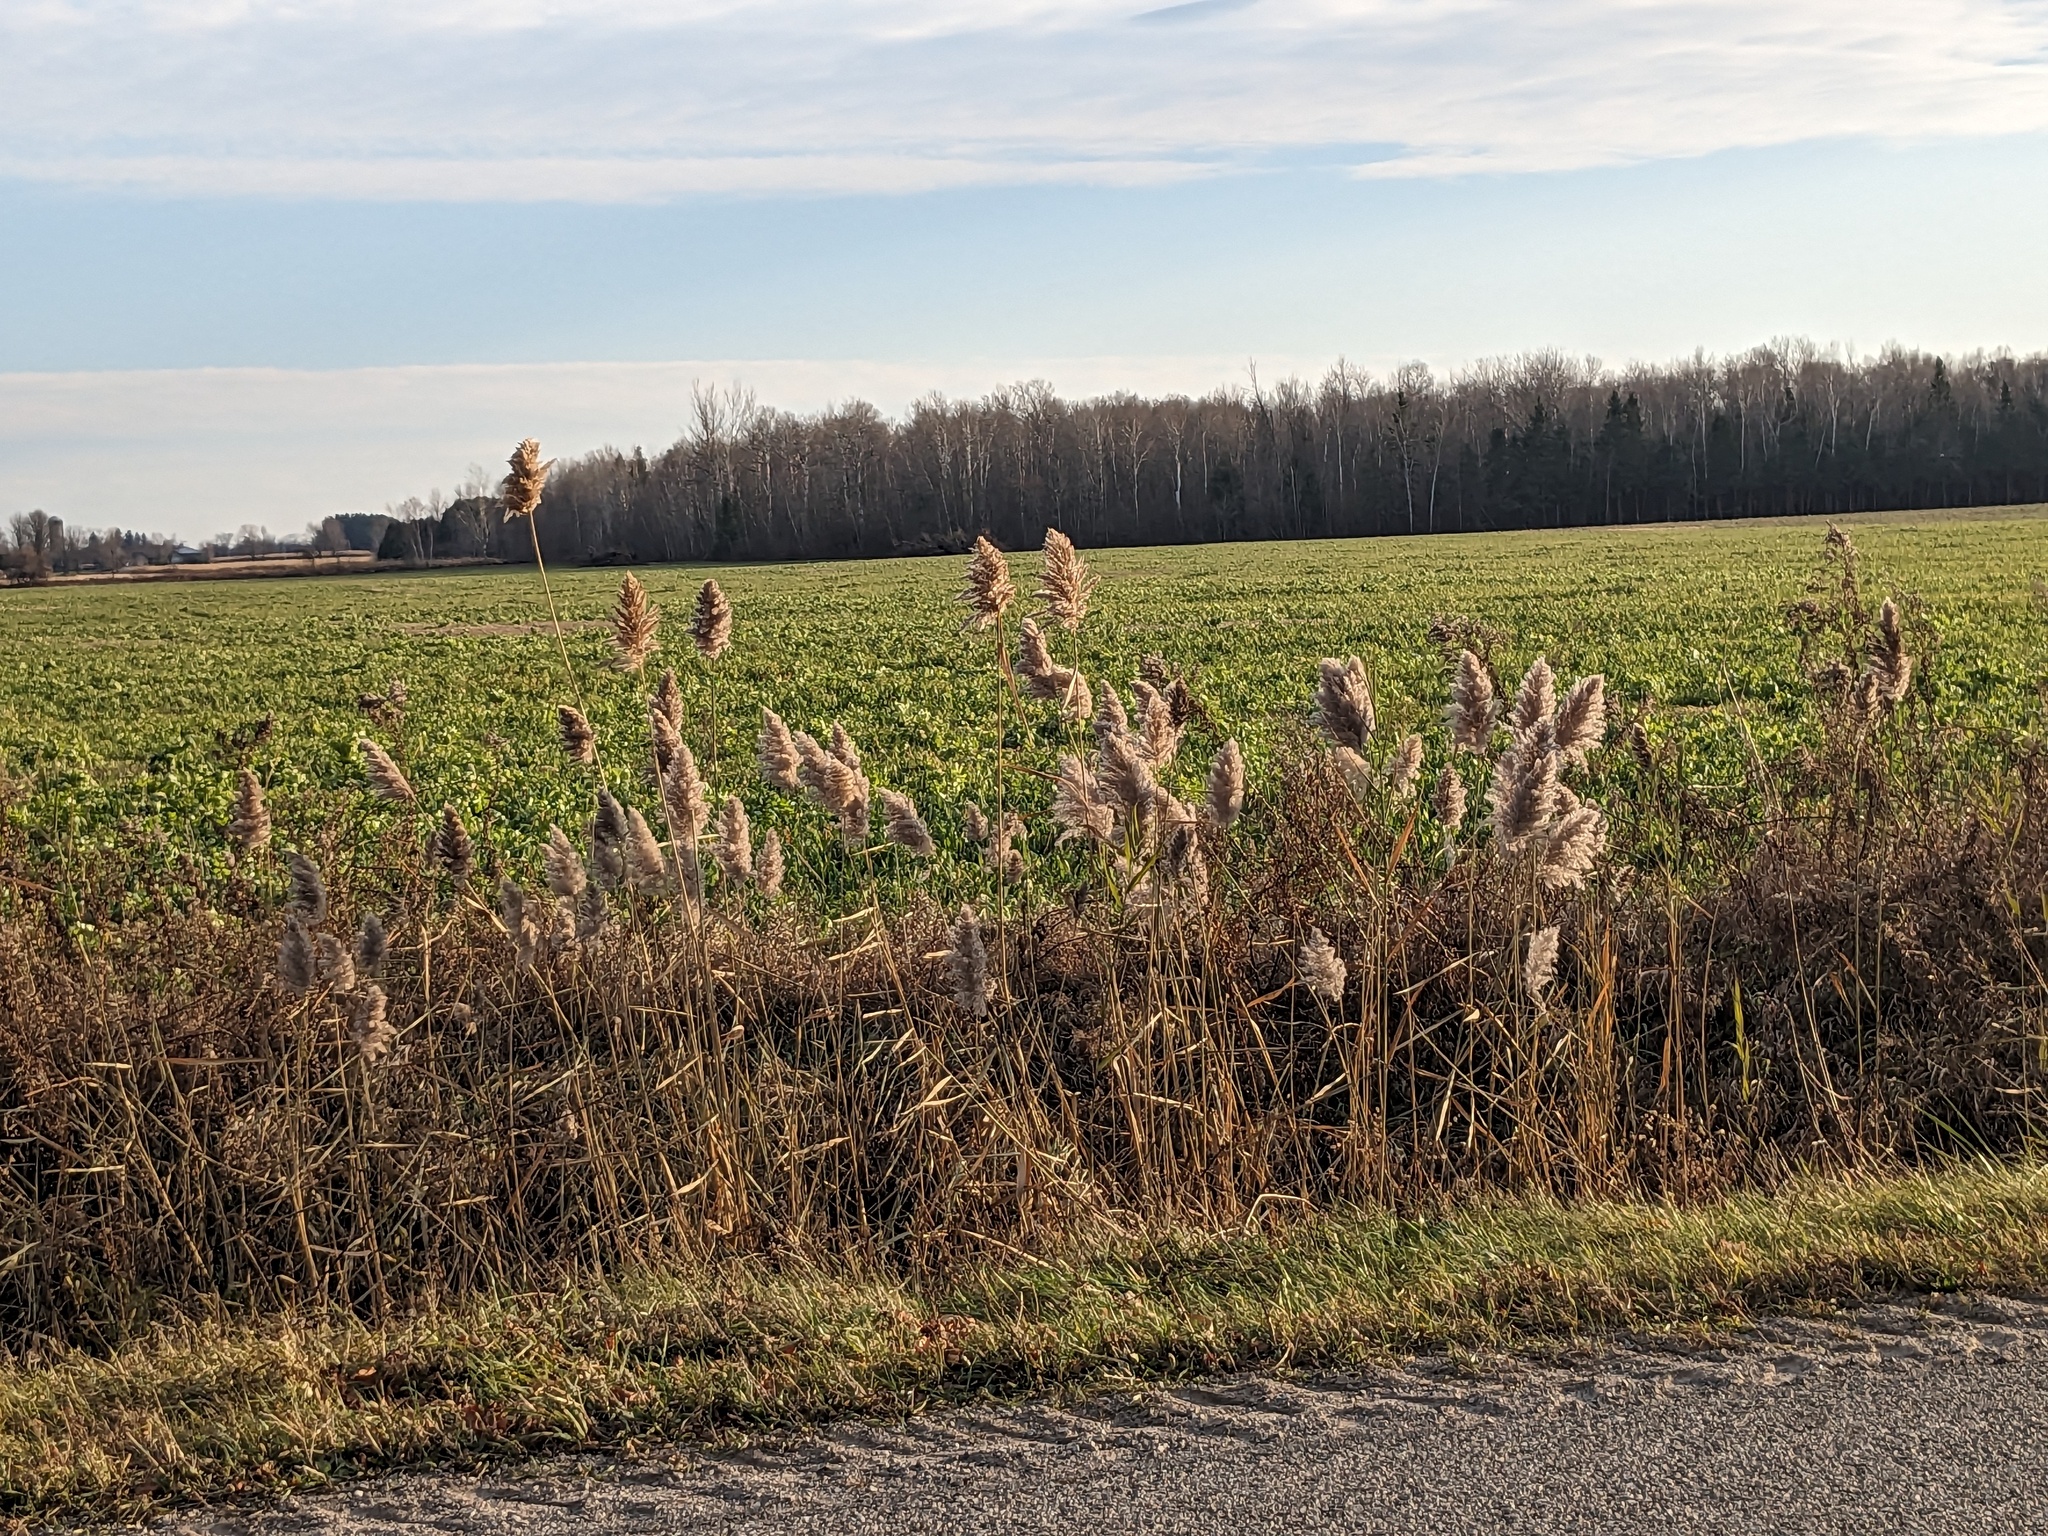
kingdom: Plantae
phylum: Tracheophyta
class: Liliopsida
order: Poales
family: Poaceae
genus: Phragmites
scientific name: Phragmites australis
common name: Common reed
